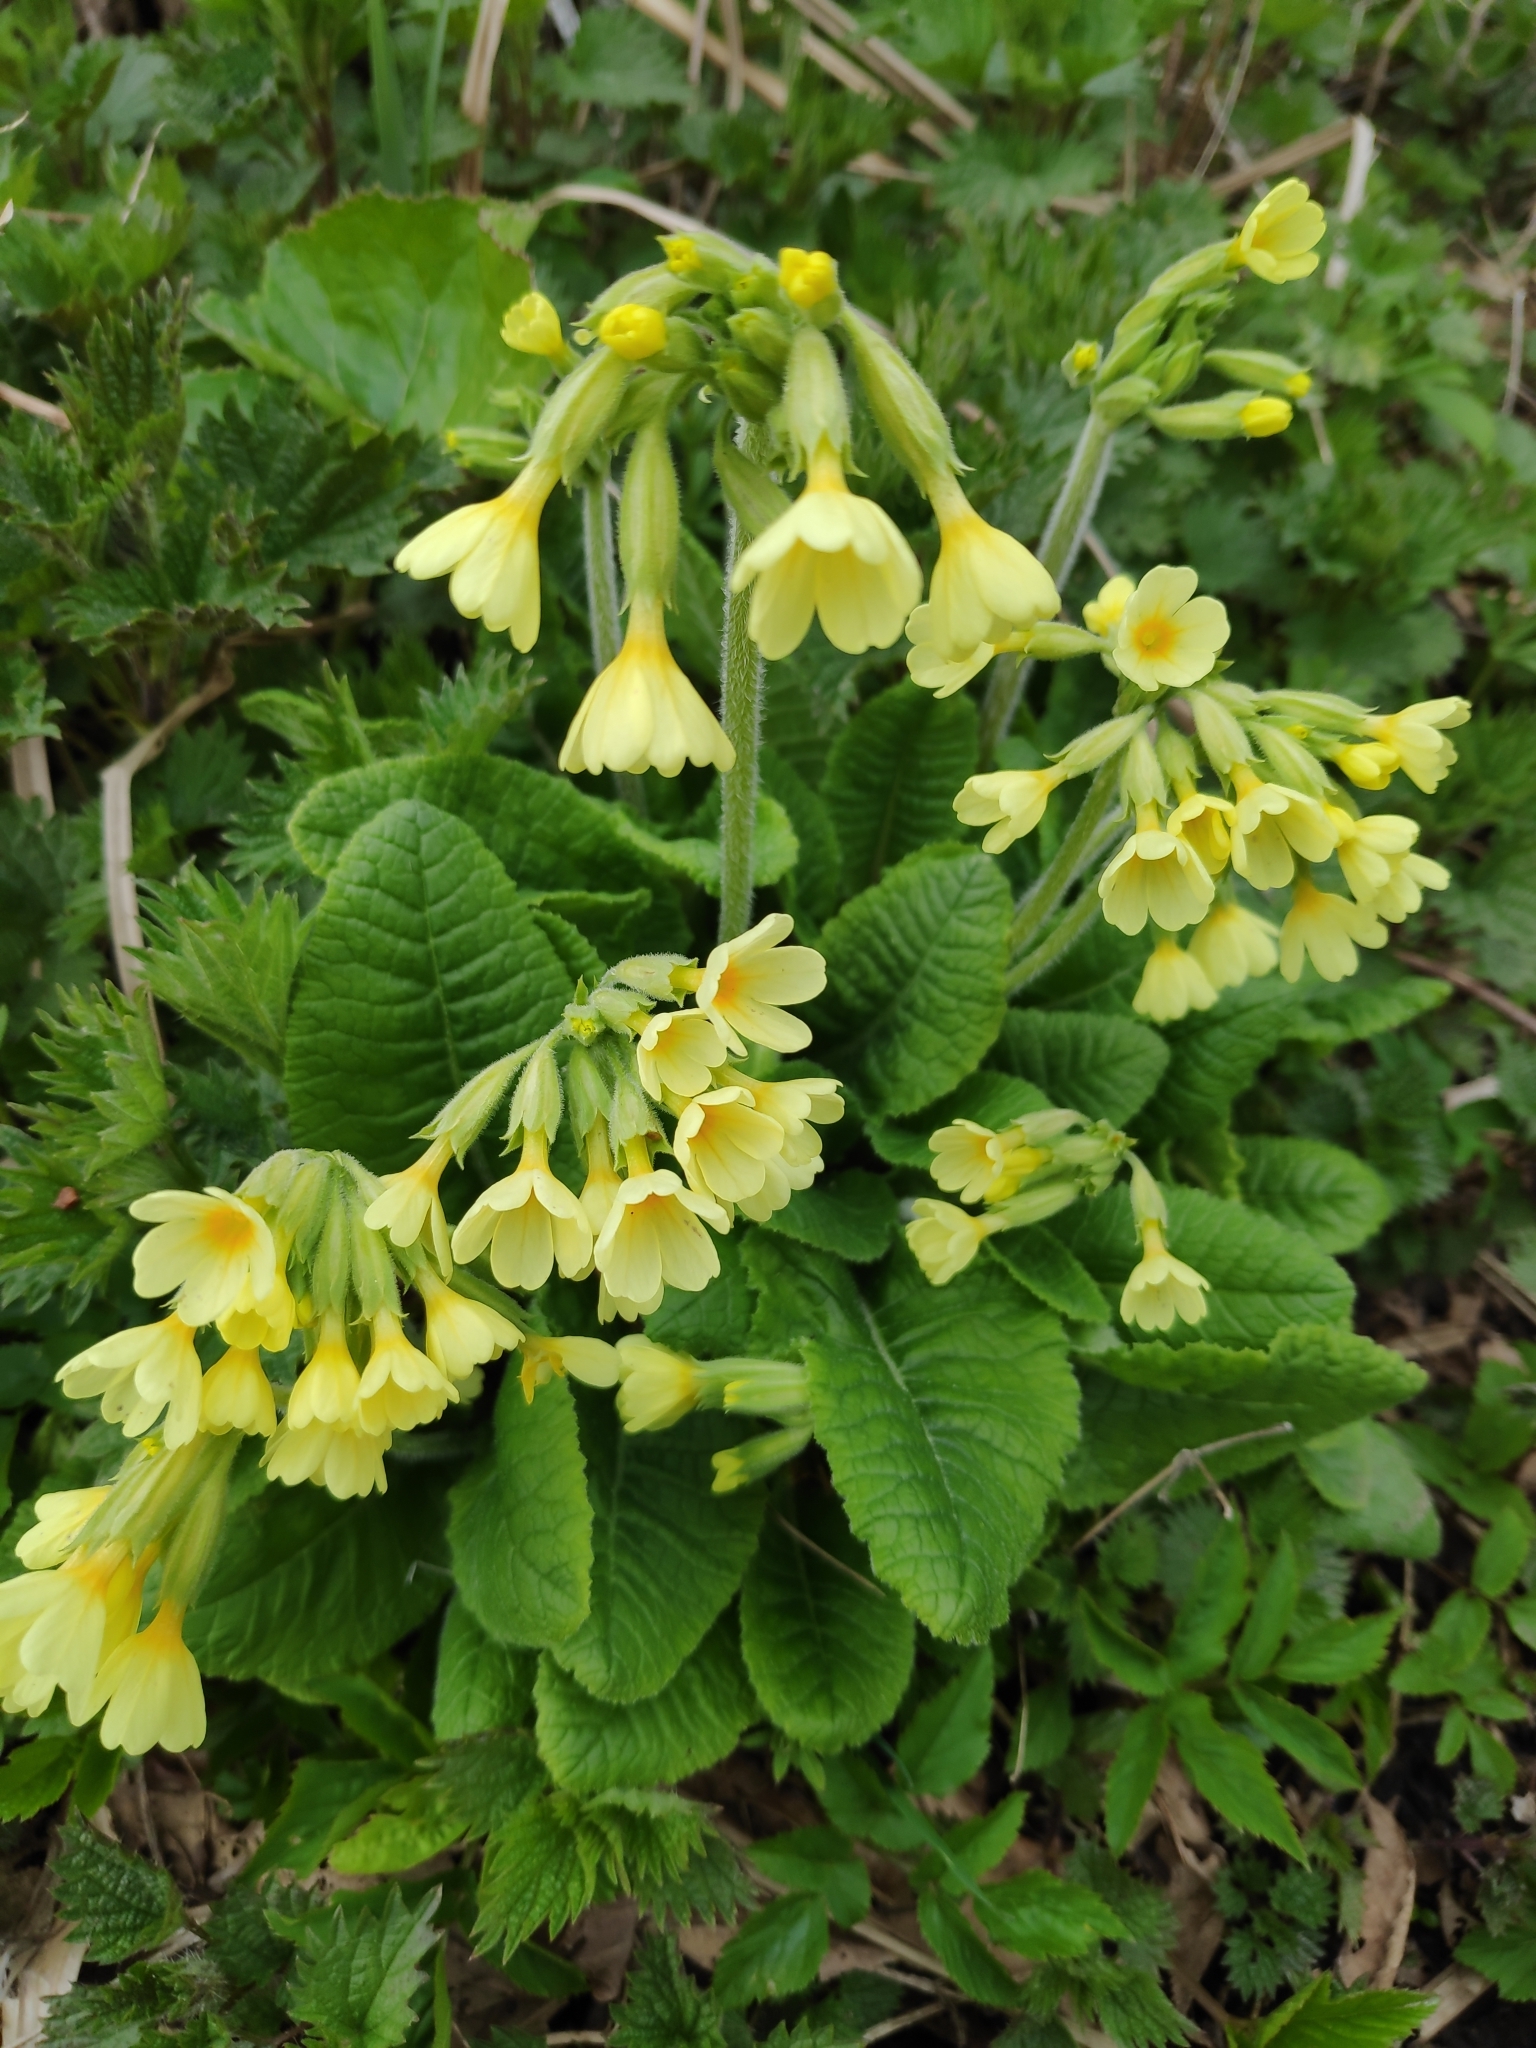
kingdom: Plantae
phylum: Tracheophyta
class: Magnoliopsida
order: Ericales
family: Primulaceae
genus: Primula
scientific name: Primula elatior
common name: Oxlip
